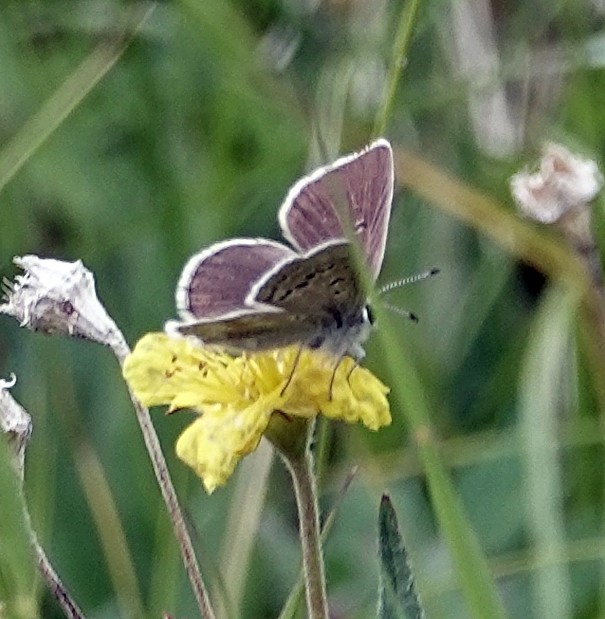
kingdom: Animalia
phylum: Arthropoda
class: Insecta
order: Lepidoptera
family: Lycaenidae
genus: Agriades
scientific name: Agriades glandon
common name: Glandon blue
